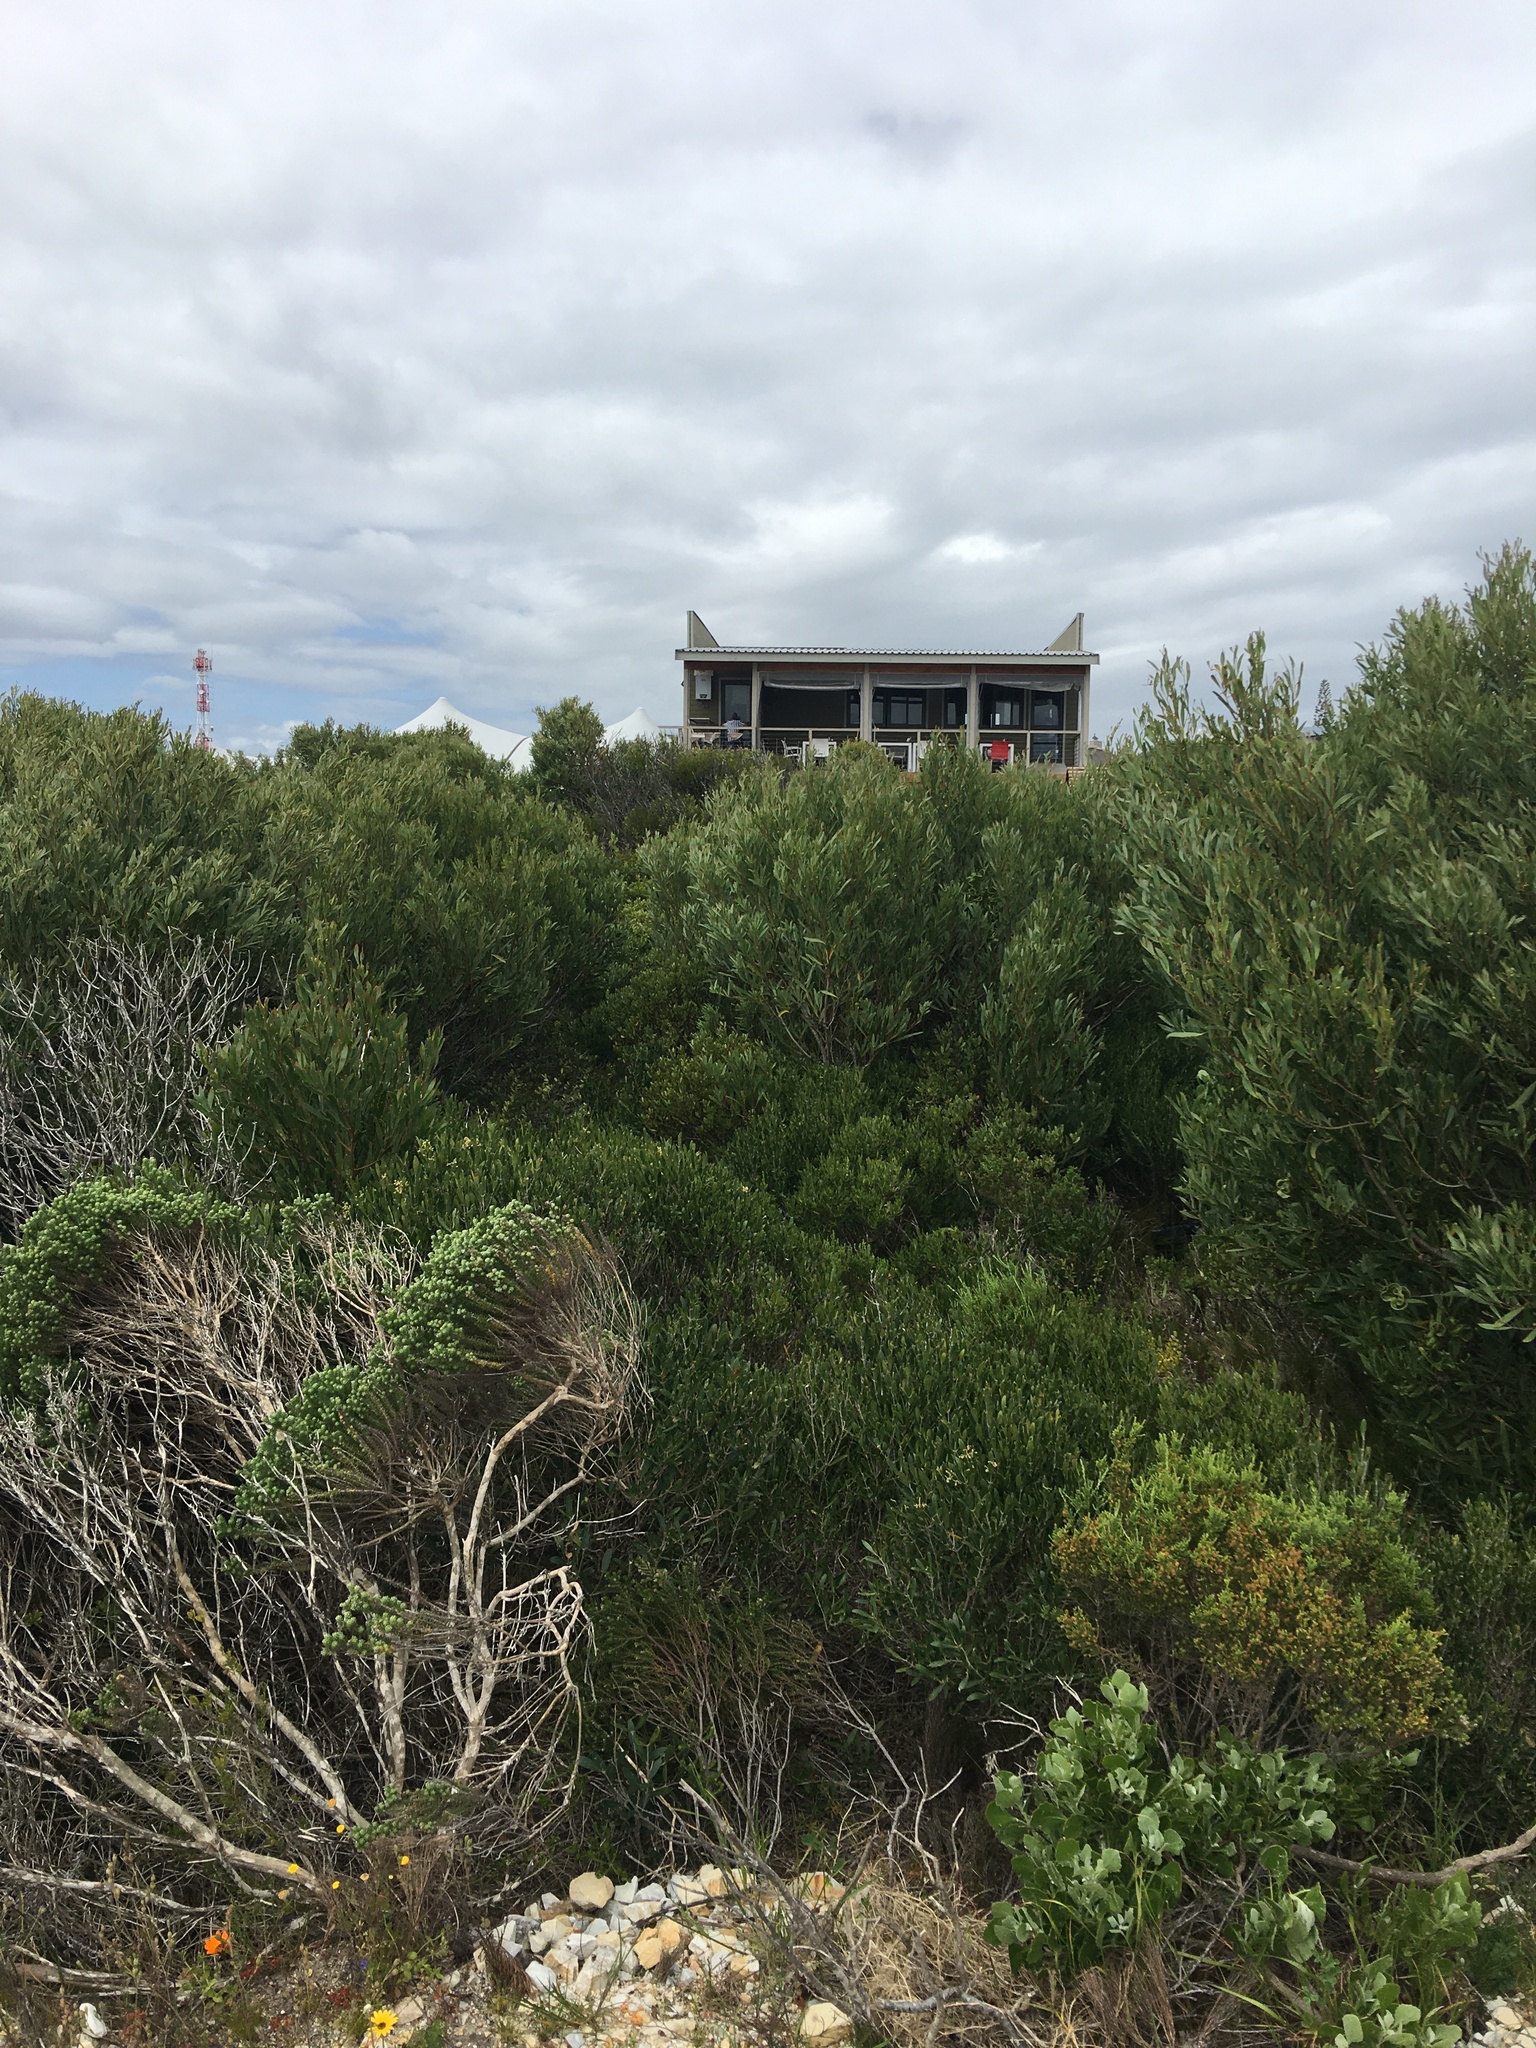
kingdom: Plantae
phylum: Tracheophyta
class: Magnoliopsida
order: Fabales
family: Fabaceae
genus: Acacia
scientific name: Acacia cyclops
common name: Coastal wattle
